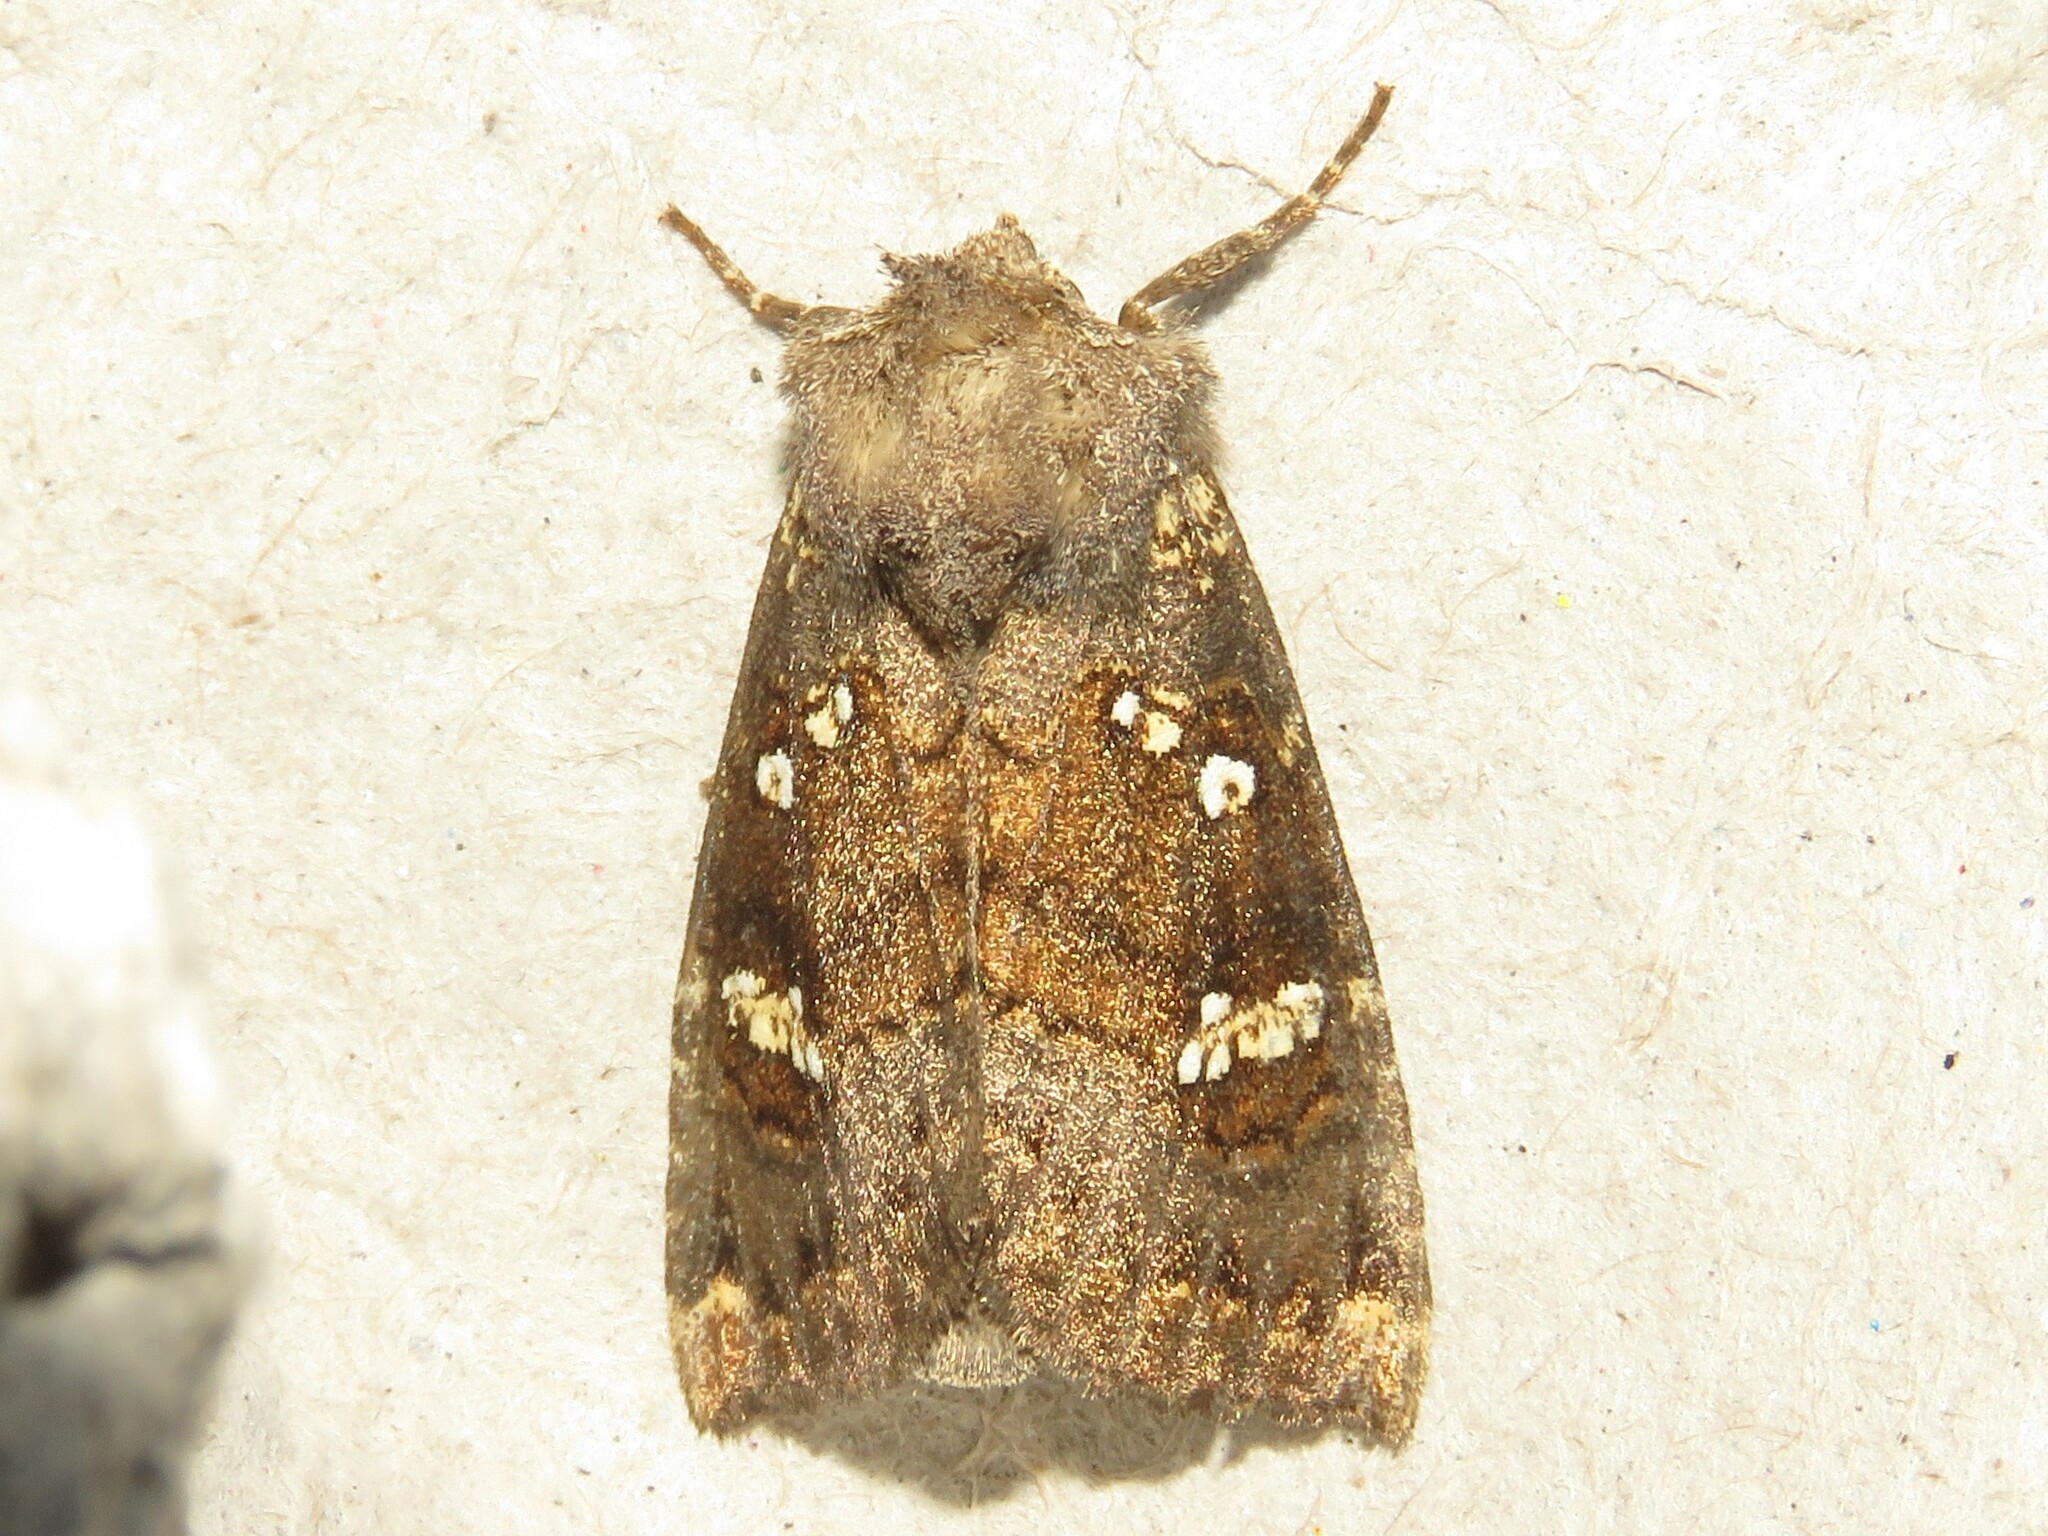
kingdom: Animalia
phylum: Arthropoda
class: Insecta
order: Lepidoptera
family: Noctuidae
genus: Papaipema
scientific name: Papaipema unimoda
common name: Meadow rue borer moth
